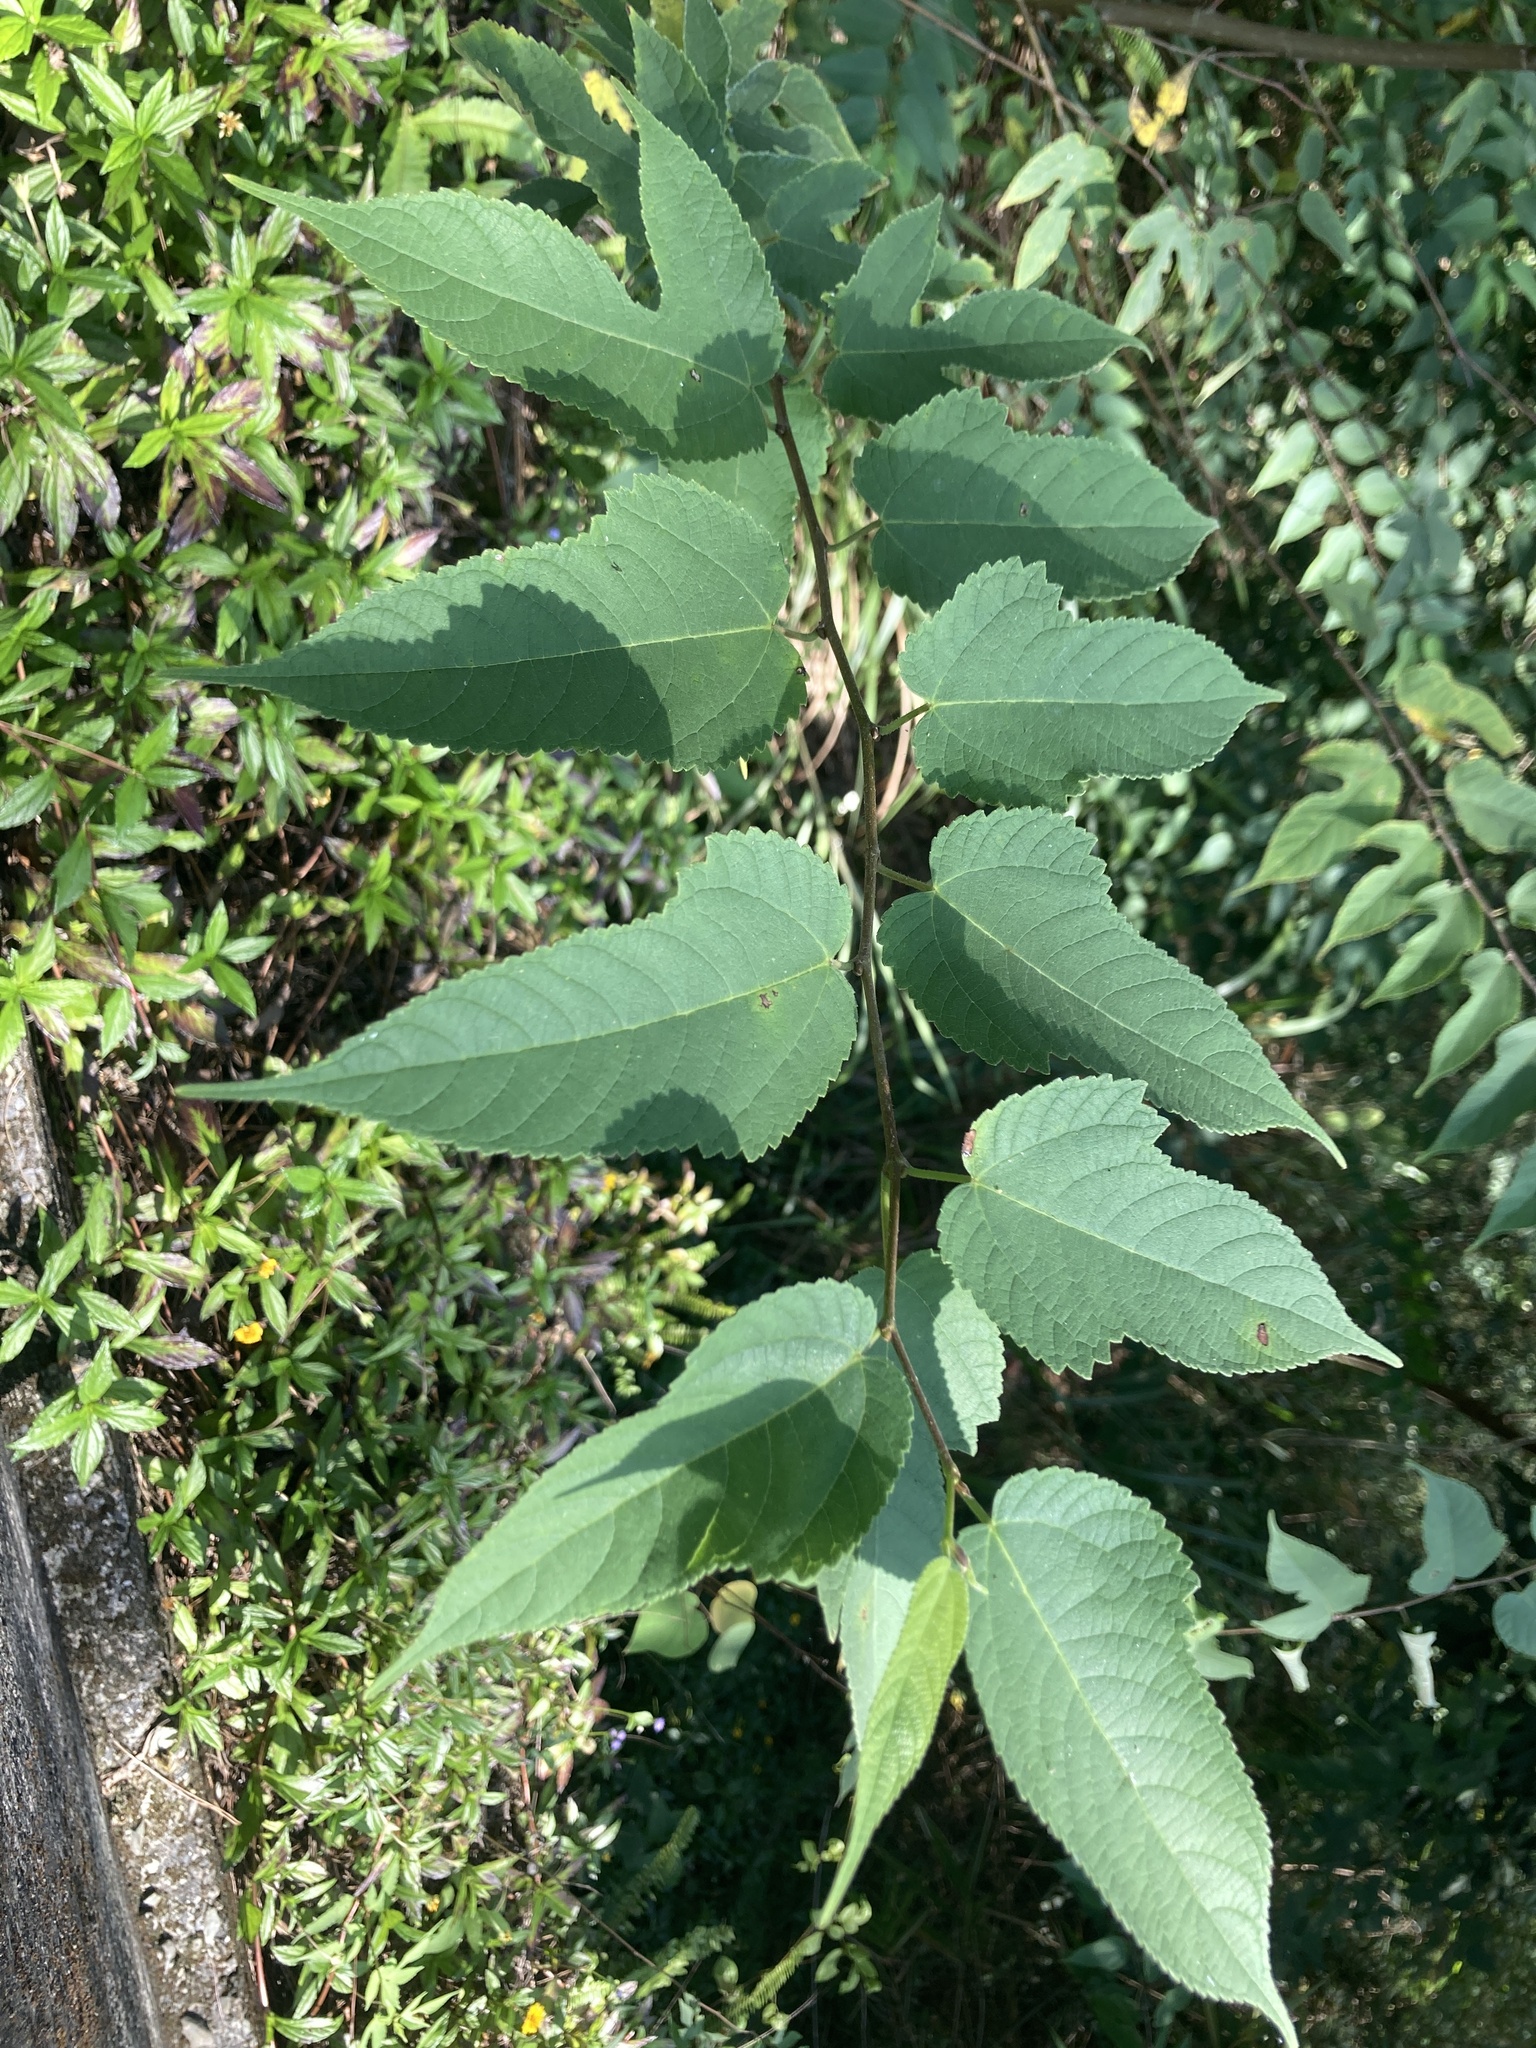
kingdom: Plantae
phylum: Tracheophyta
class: Magnoliopsida
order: Rosales
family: Moraceae
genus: Broussonetia
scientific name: Broussonetia monoica
